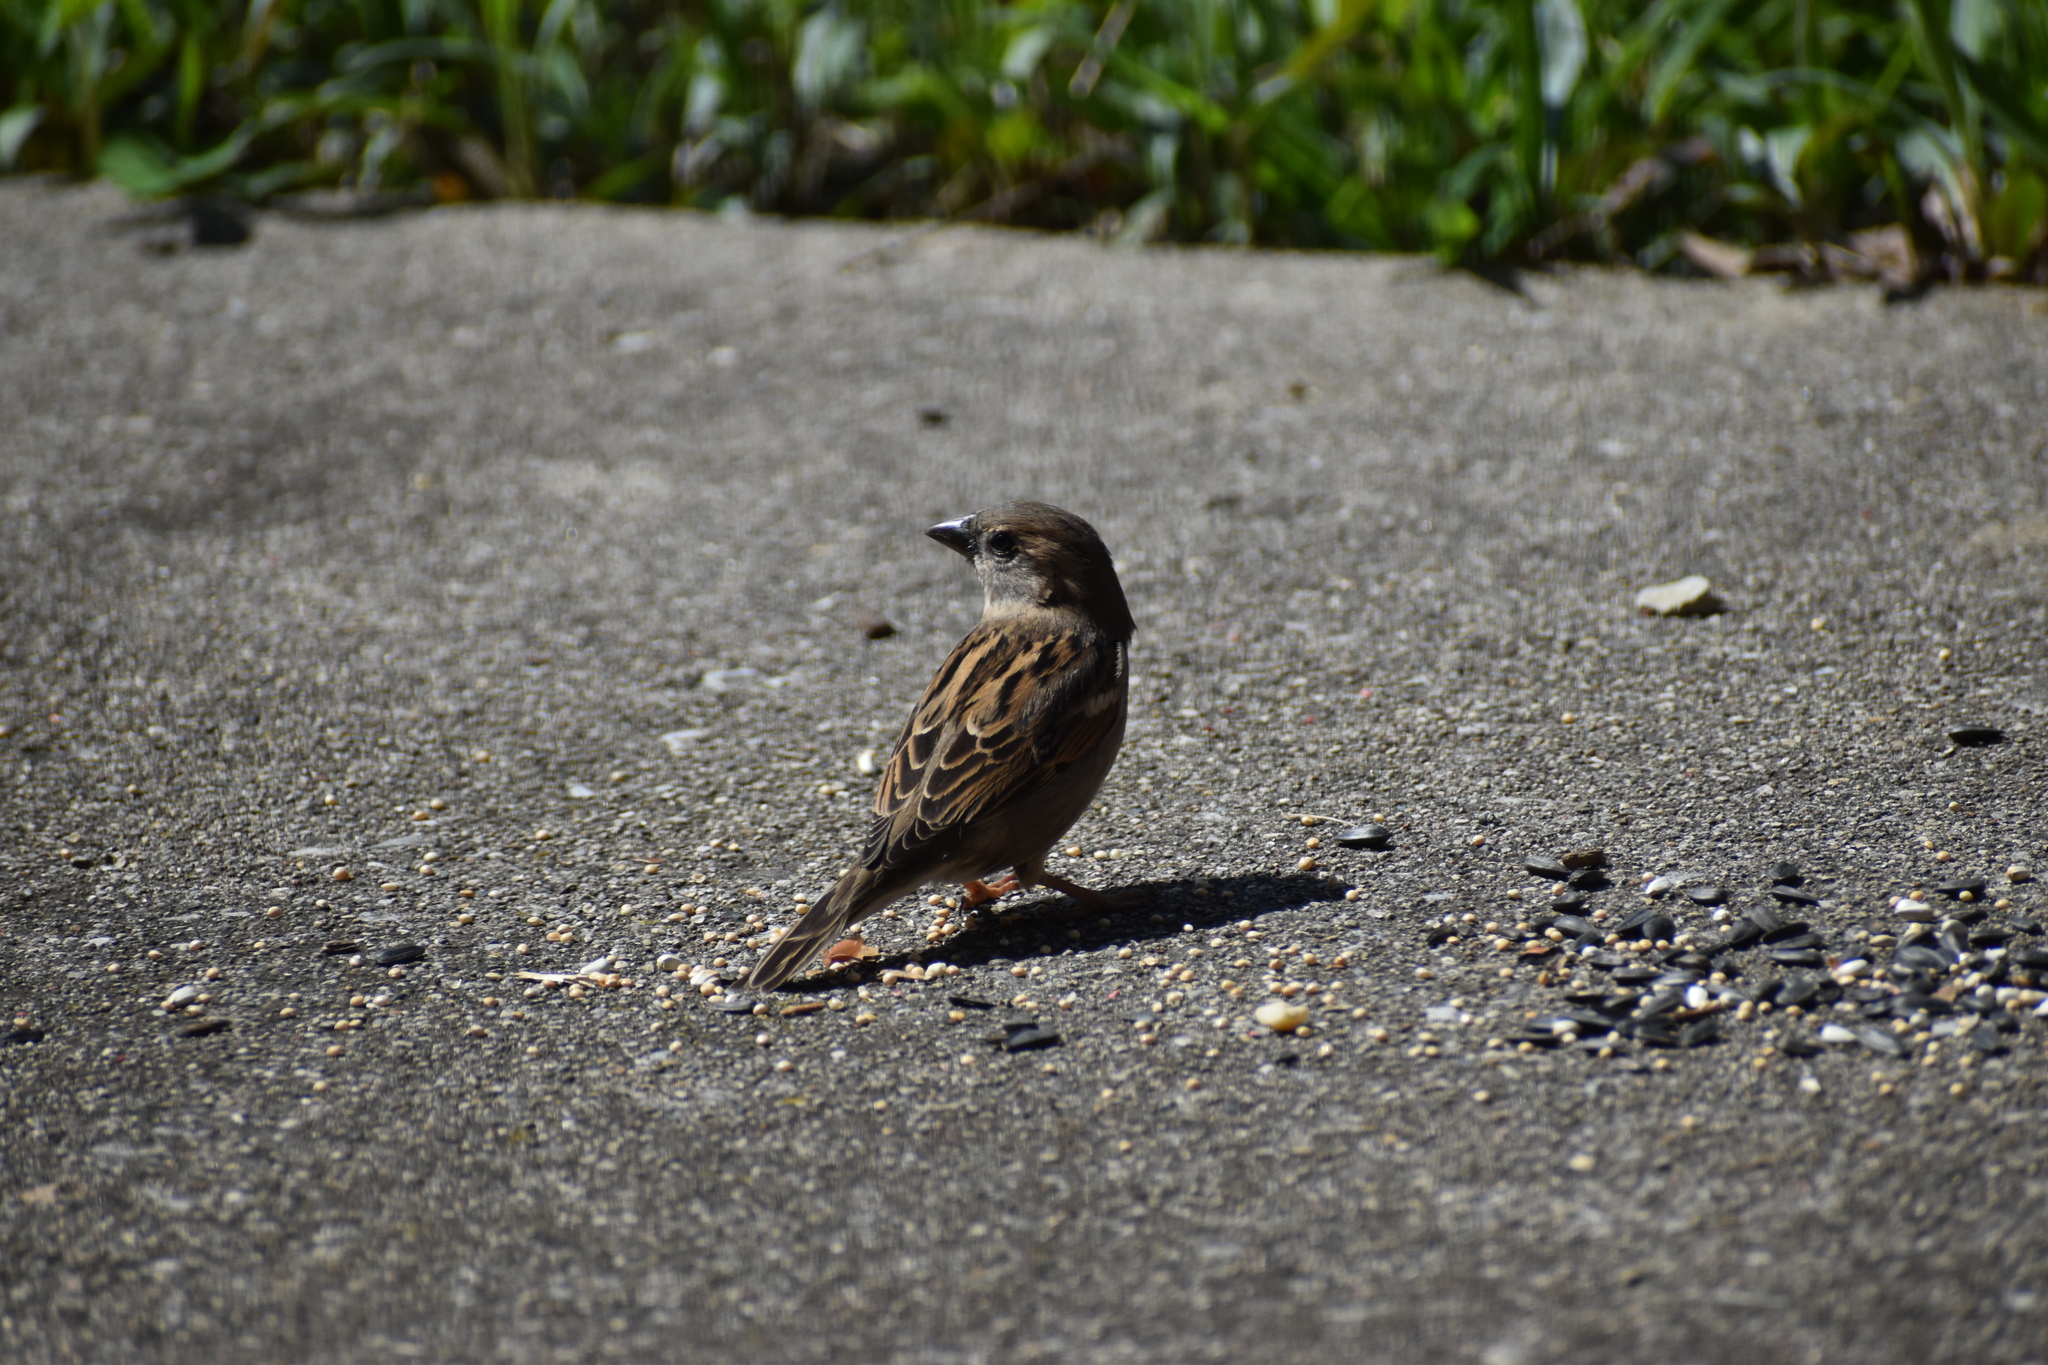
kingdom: Animalia
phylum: Chordata
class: Aves
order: Passeriformes
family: Passeridae
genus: Passer
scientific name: Passer domesticus
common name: House sparrow
